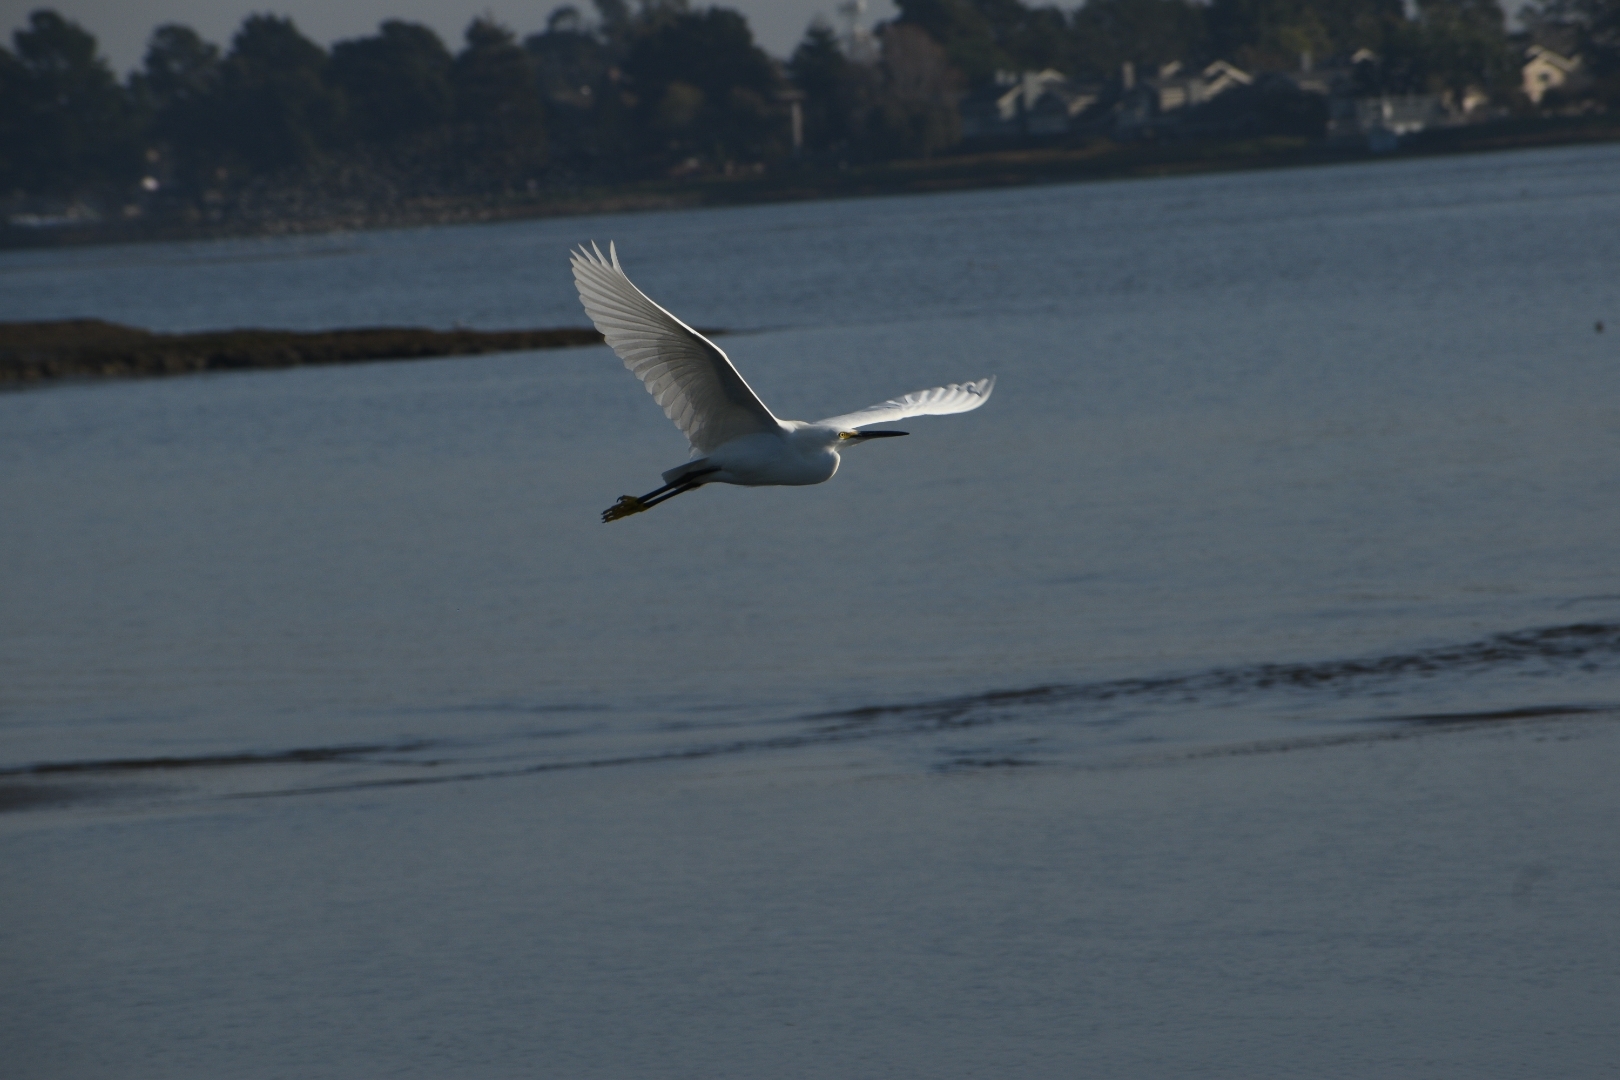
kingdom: Animalia
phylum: Chordata
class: Aves
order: Pelecaniformes
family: Ardeidae
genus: Egretta
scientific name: Egretta thula
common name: Snowy egret
